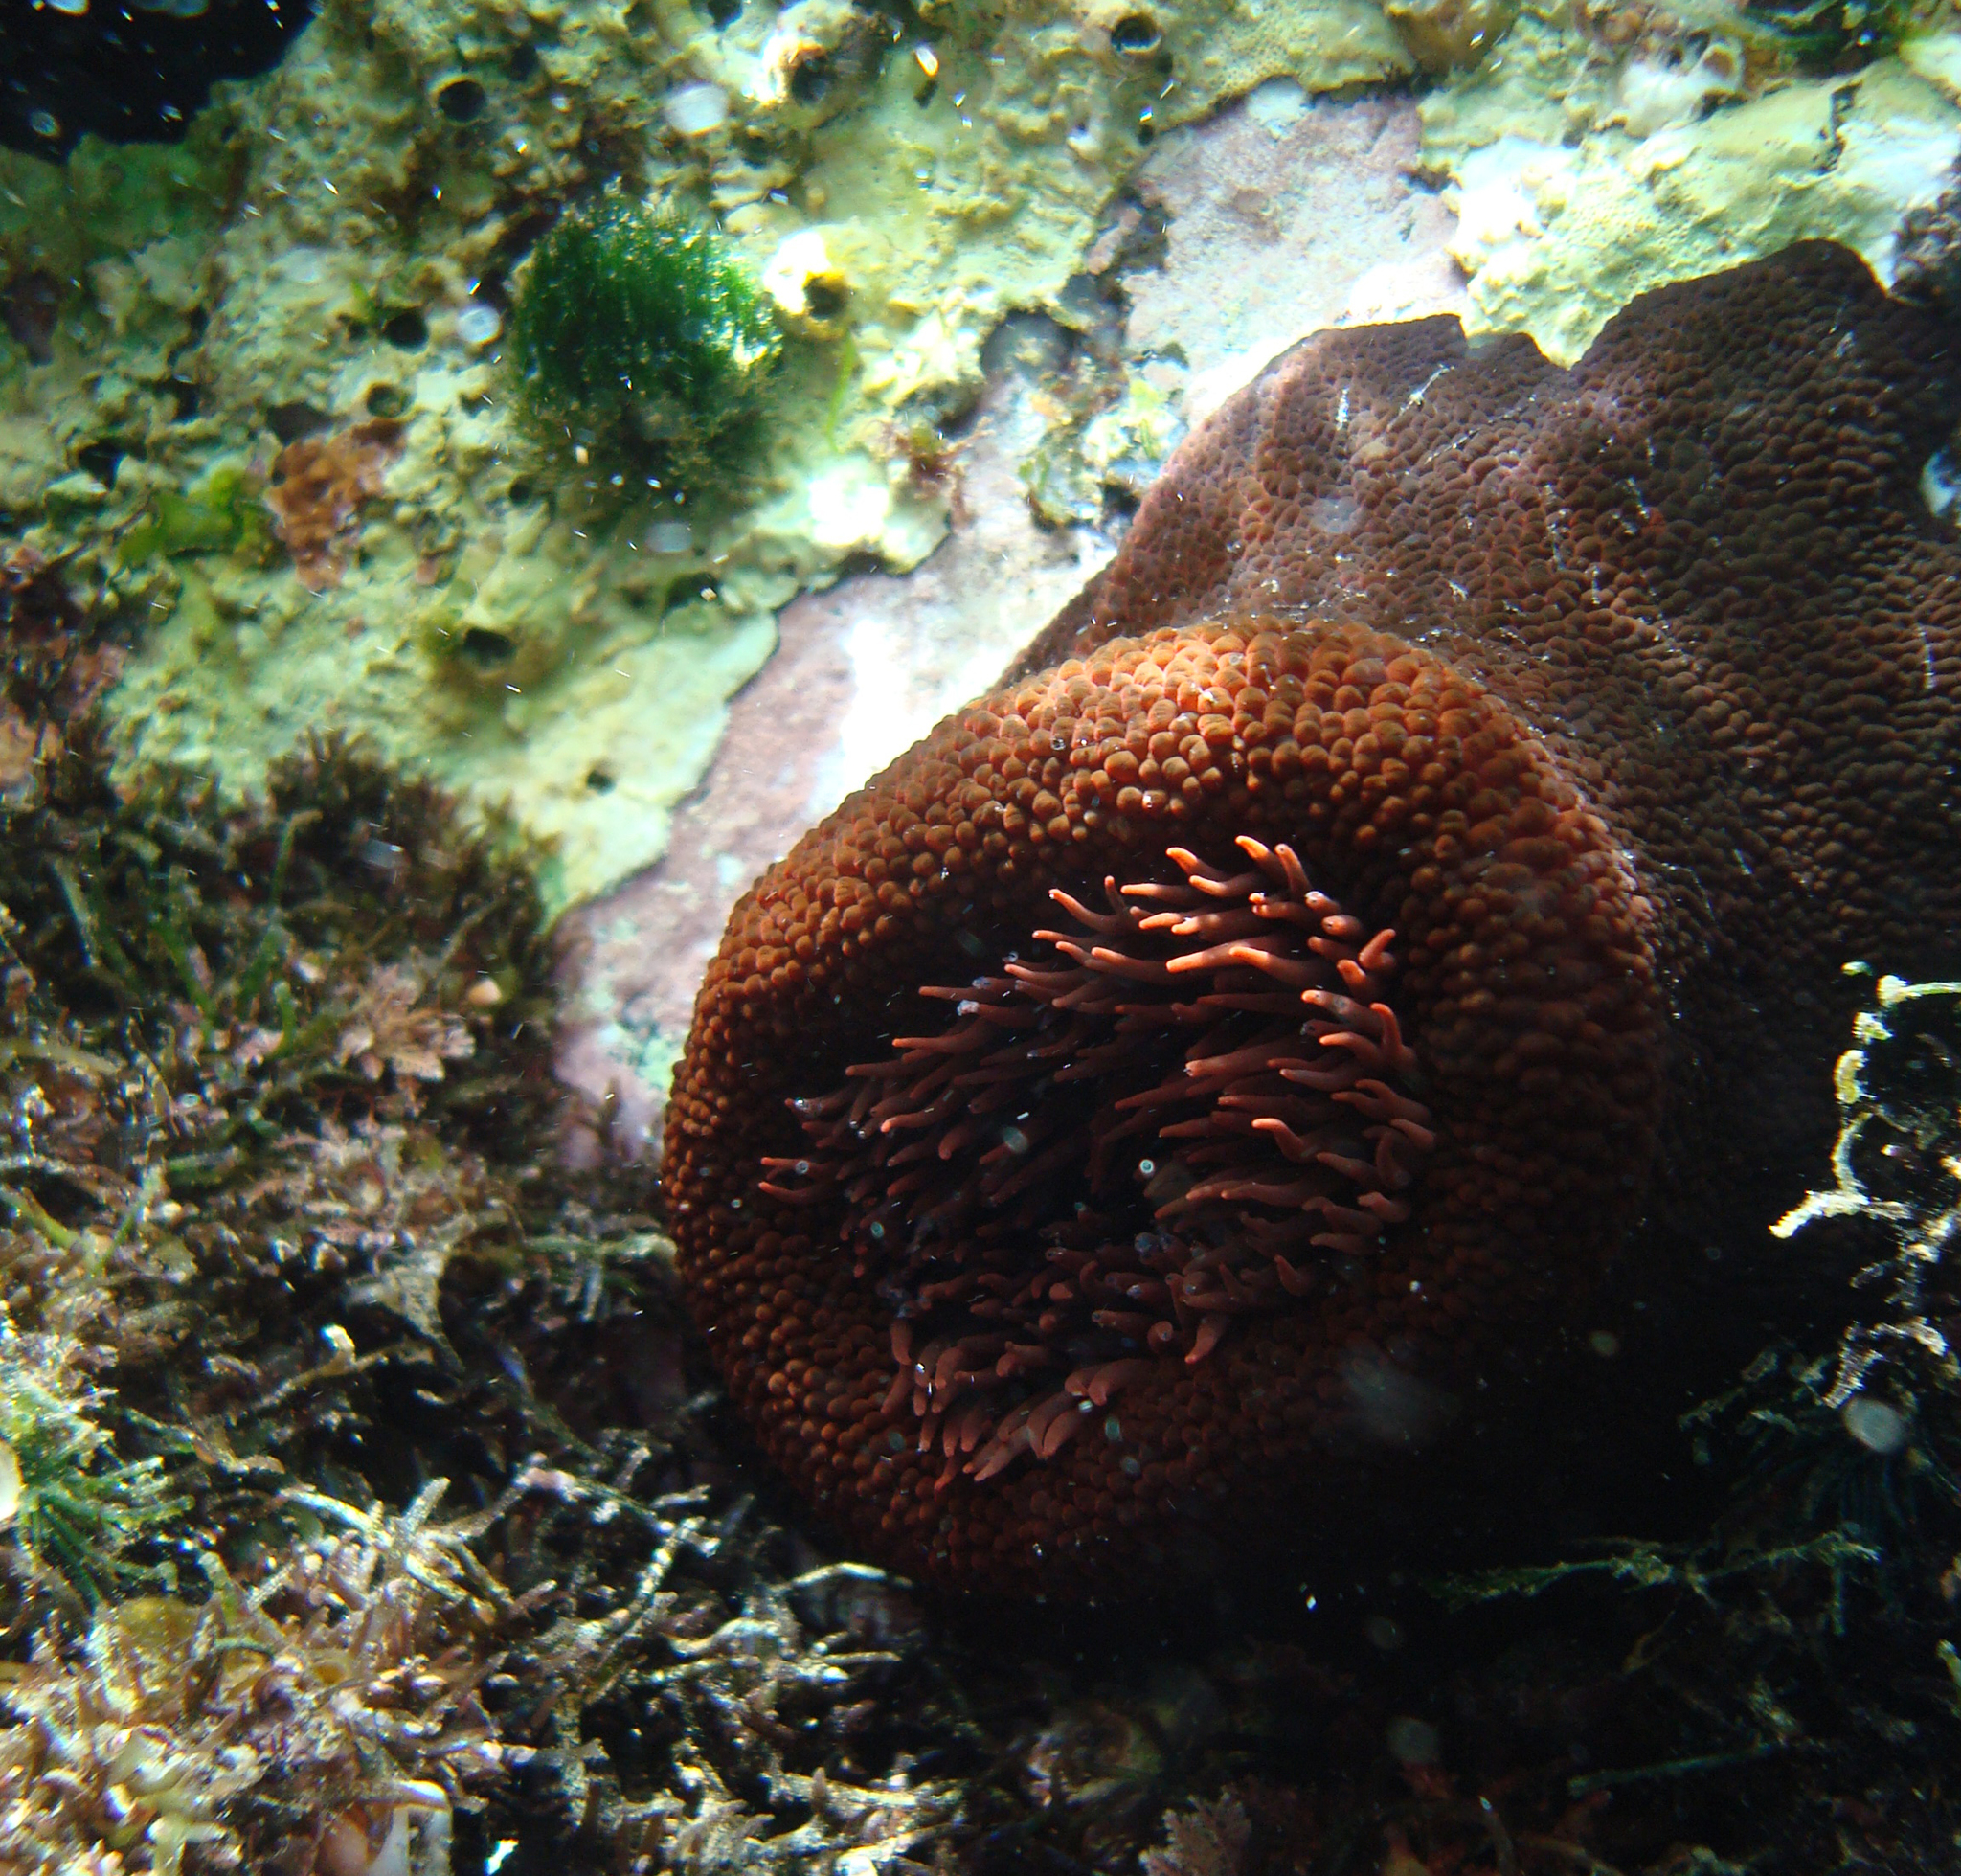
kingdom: Animalia
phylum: Cnidaria
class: Anthozoa
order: Actiniaria
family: Actiniidae
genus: Phymactis
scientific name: Phymactis papillosa
